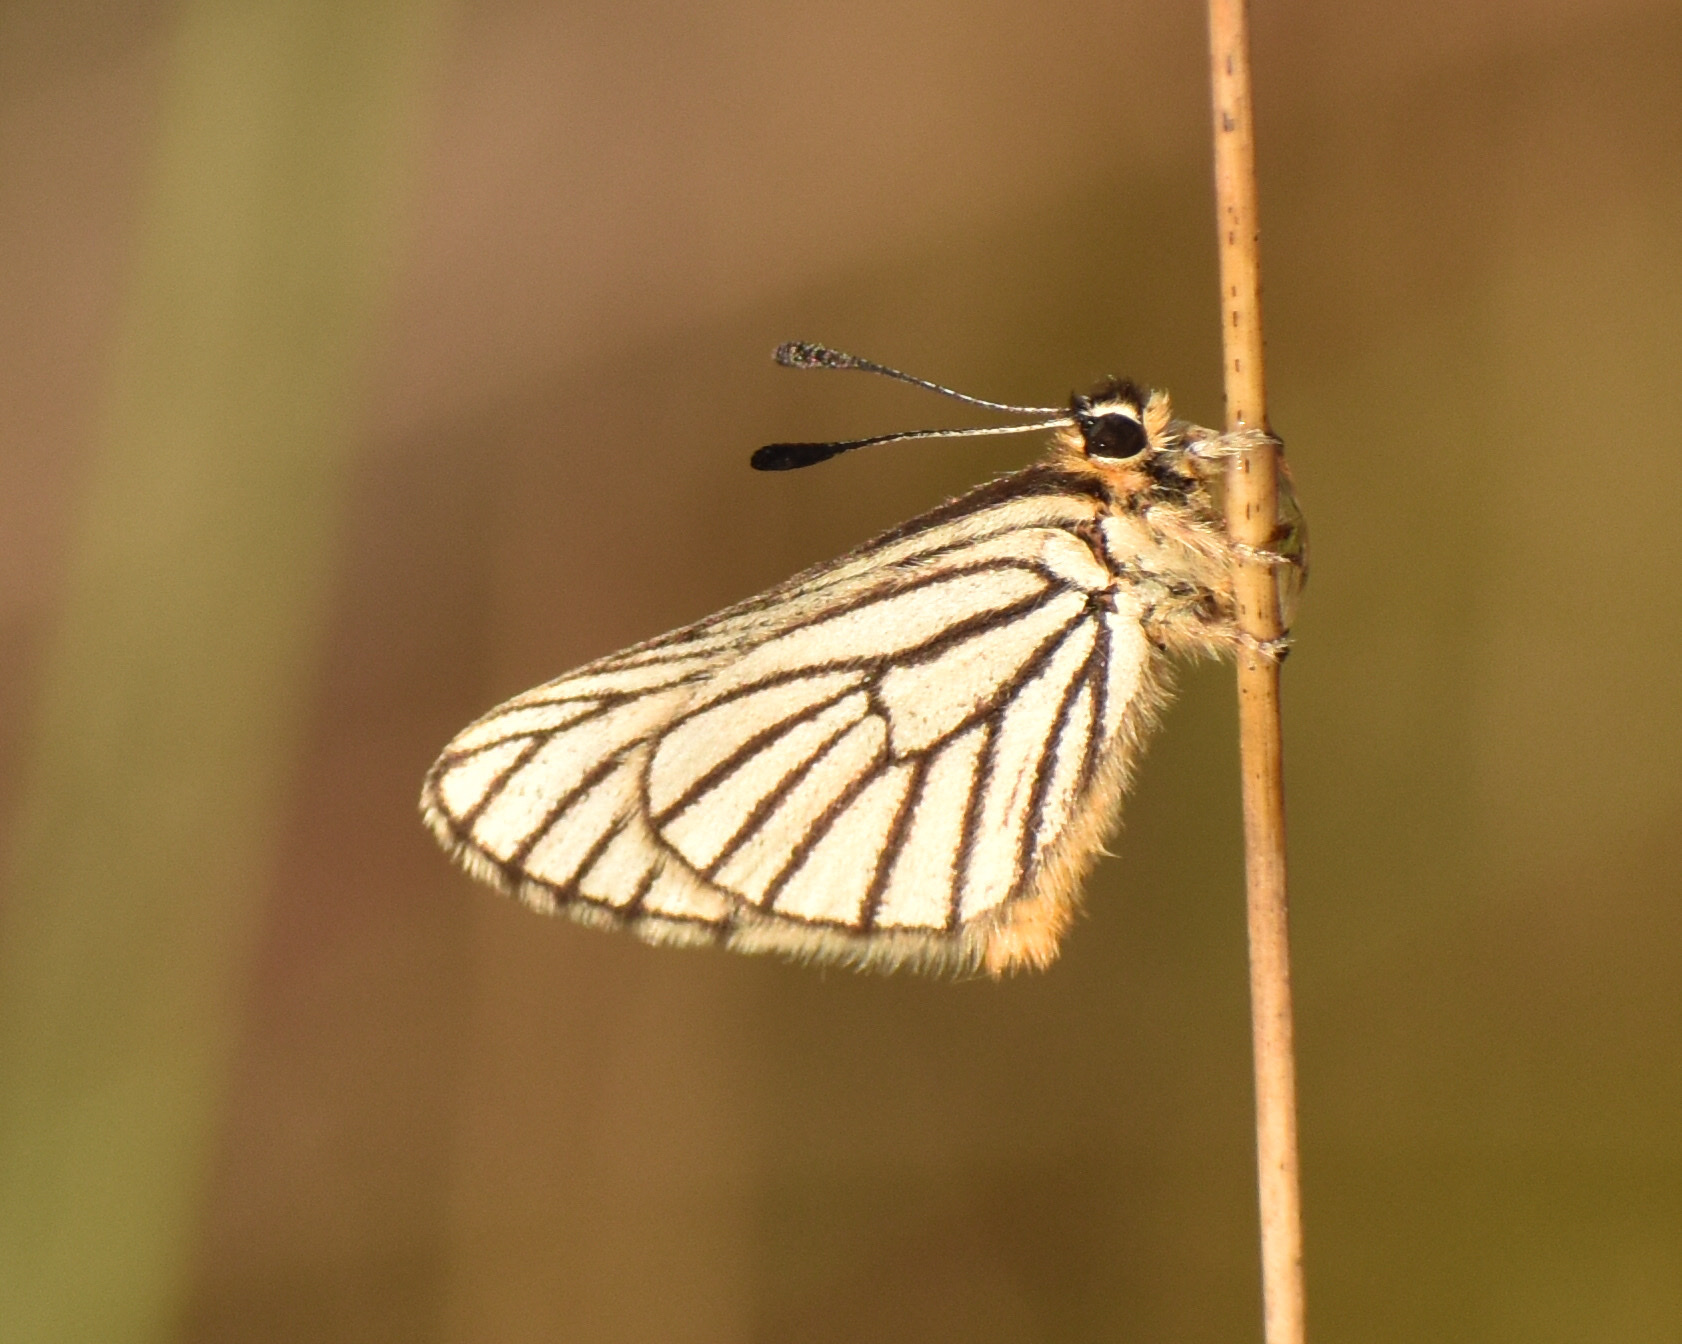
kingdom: Animalia
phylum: Arthropoda
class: Insecta
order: Lepidoptera
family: Lycaenidae
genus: Alaena
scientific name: Alaena amazoula
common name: Yellow zulu
